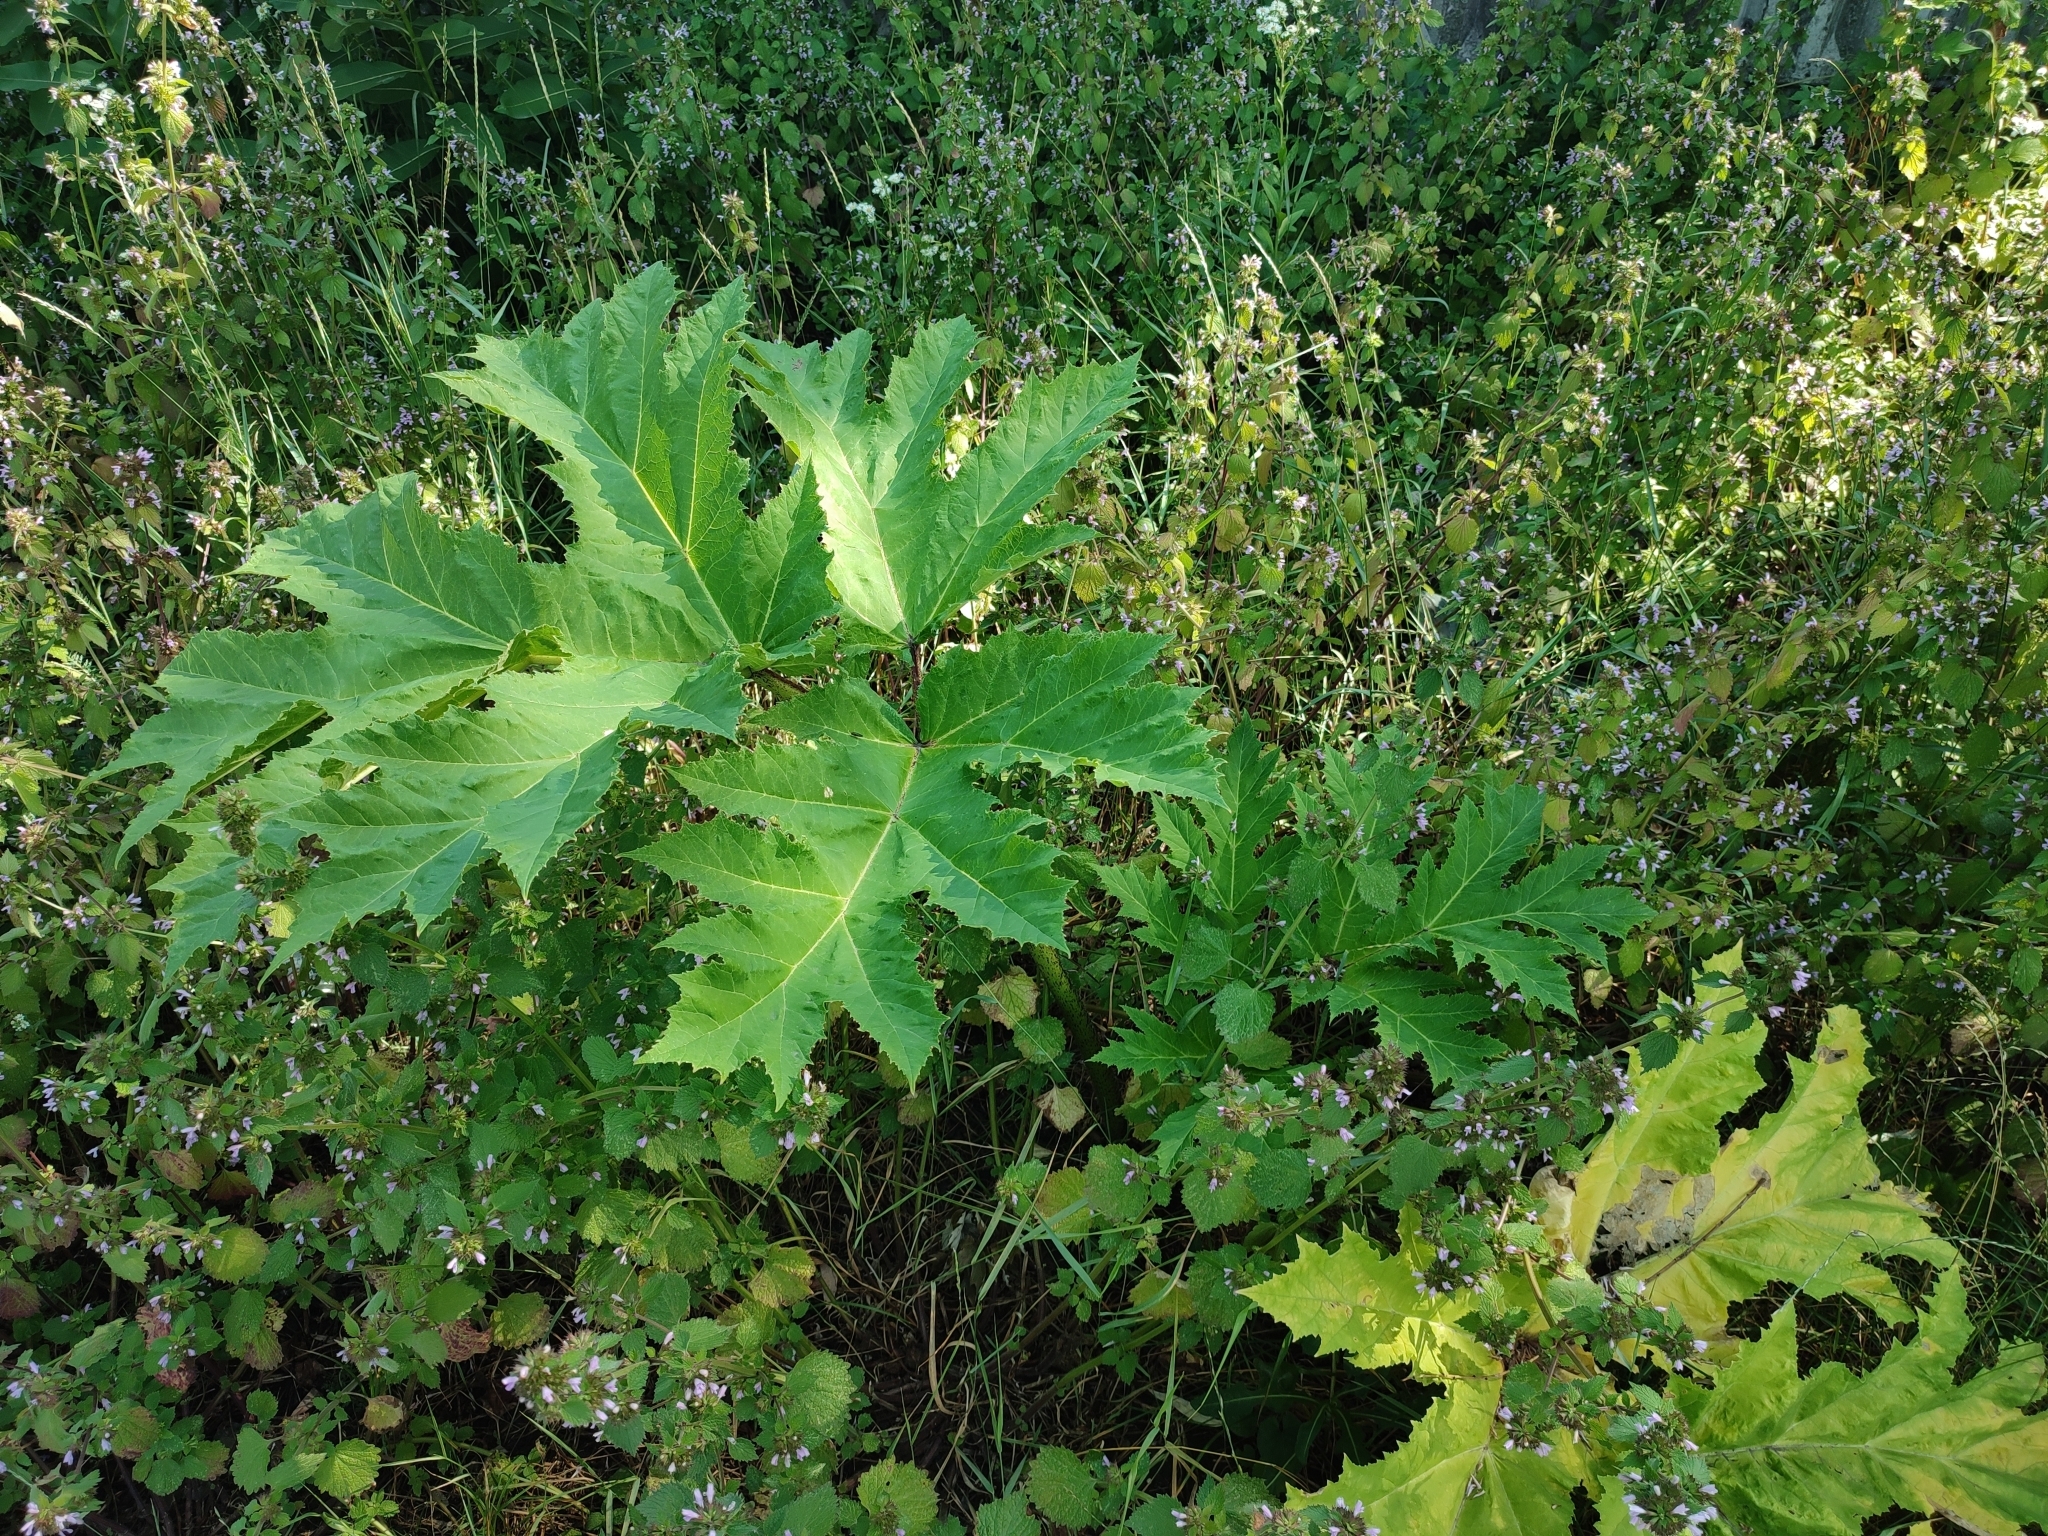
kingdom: Plantae
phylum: Tracheophyta
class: Magnoliopsida
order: Apiales
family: Apiaceae
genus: Heracleum
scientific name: Heracleum sosnowskyi
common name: Sosnowsky's hogweed
